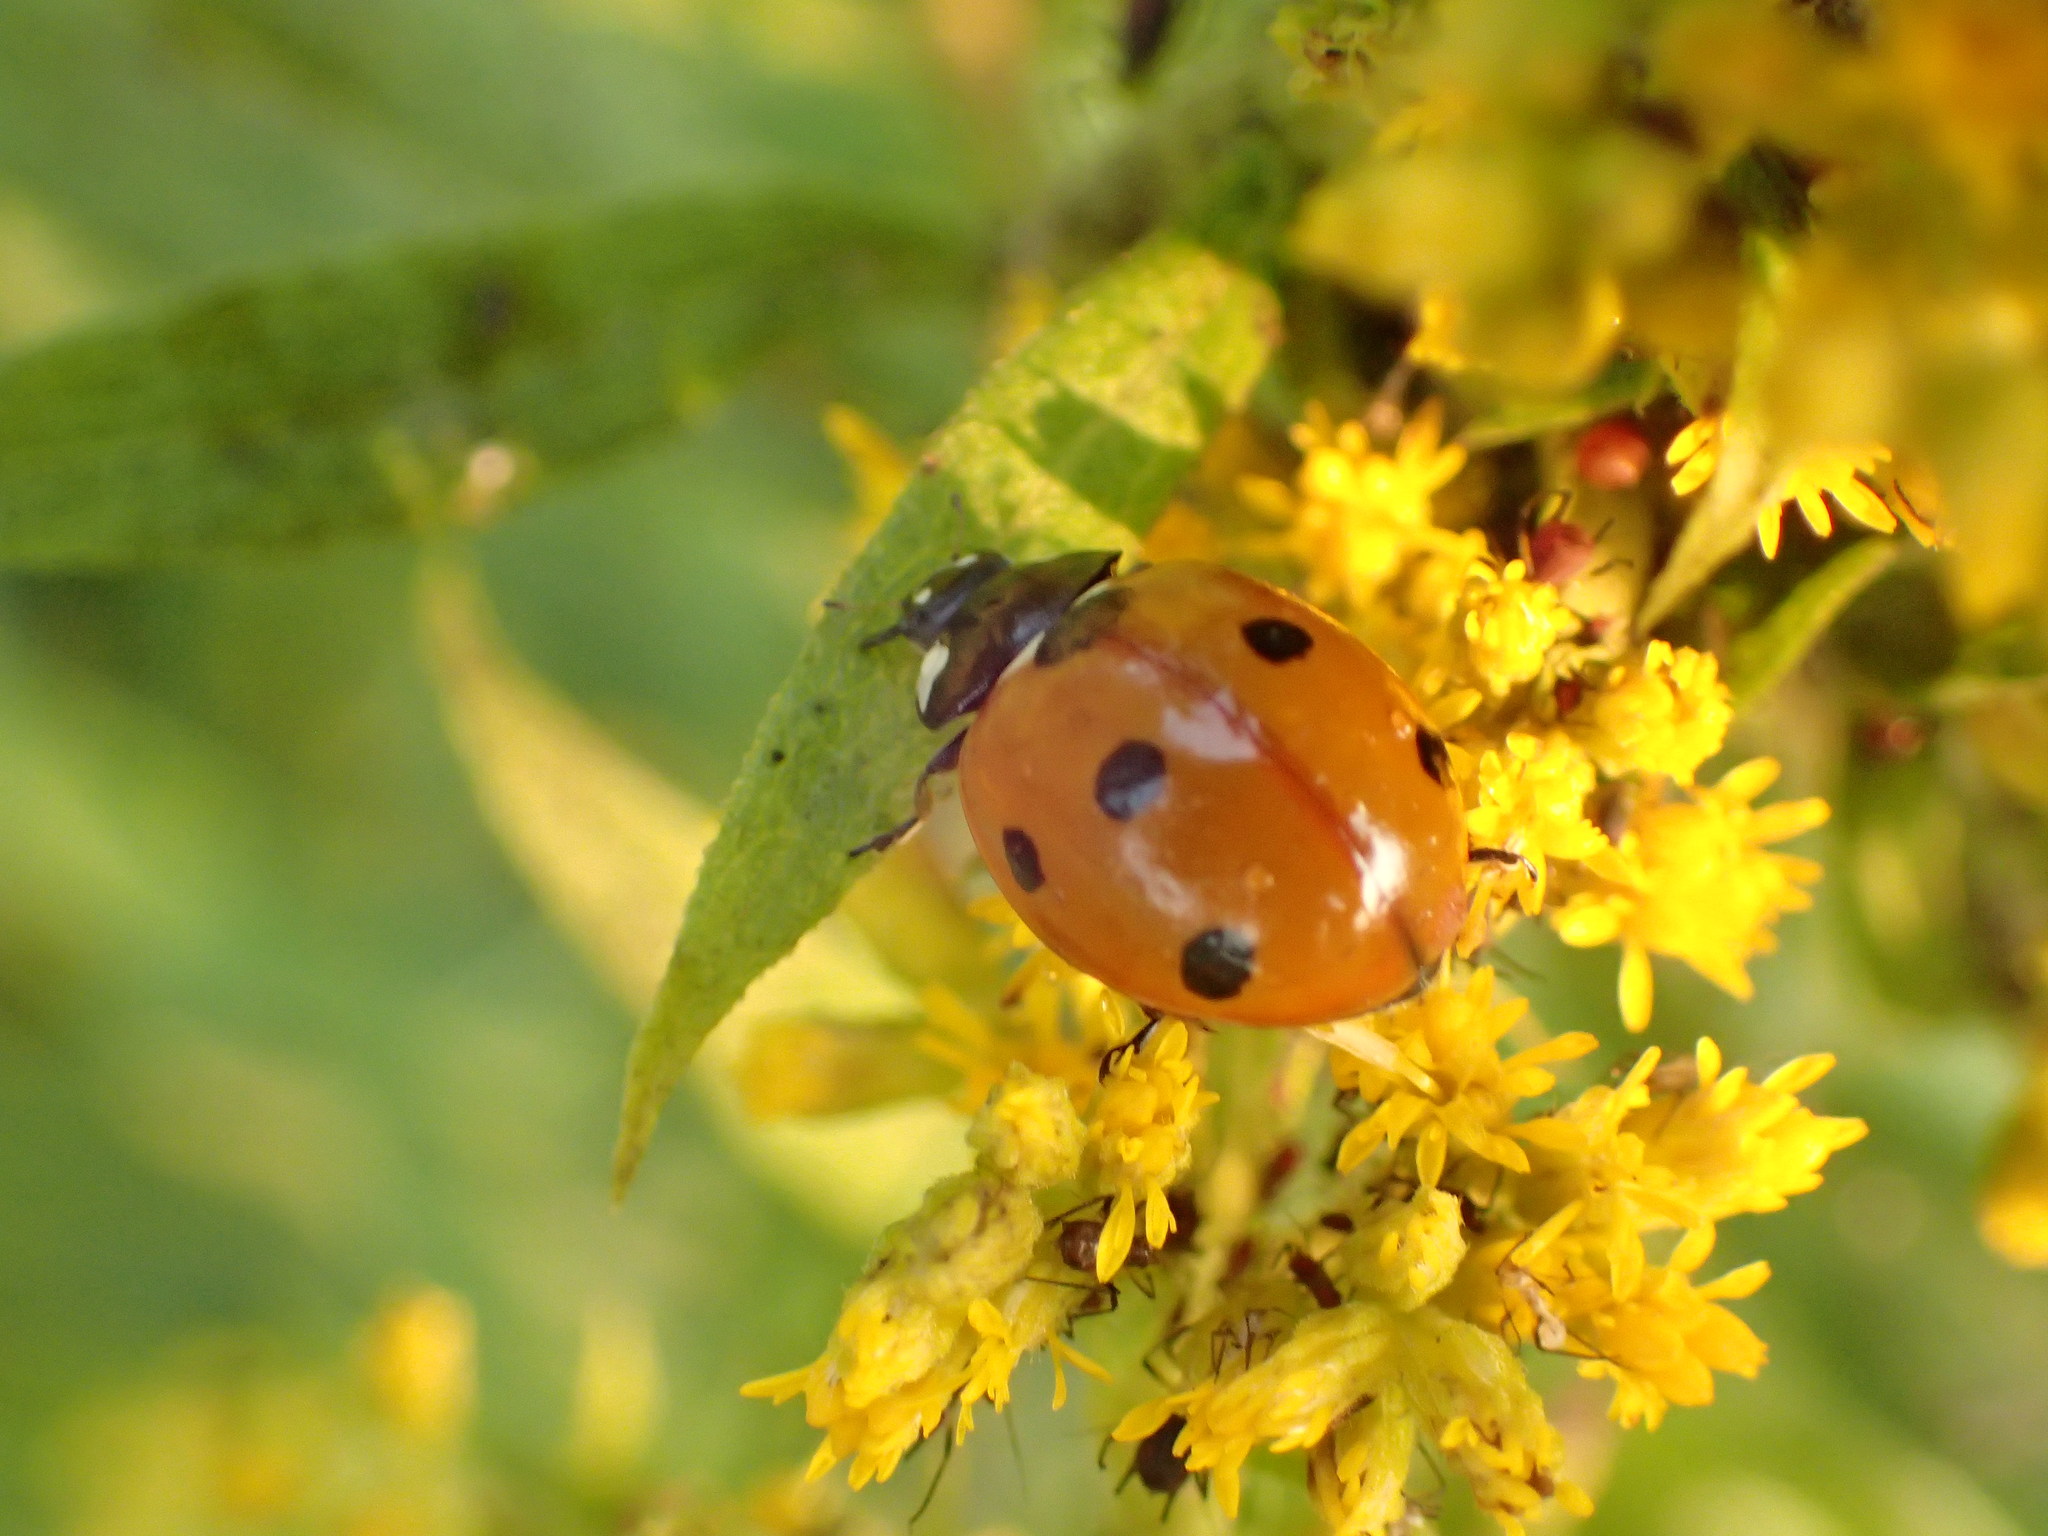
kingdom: Animalia
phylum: Arthropoda
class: Insecta
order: Coleoptera
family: Coccinellidae
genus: Coccinella
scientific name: Coccinella septempunctata
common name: Sevenspotted lady beetle
